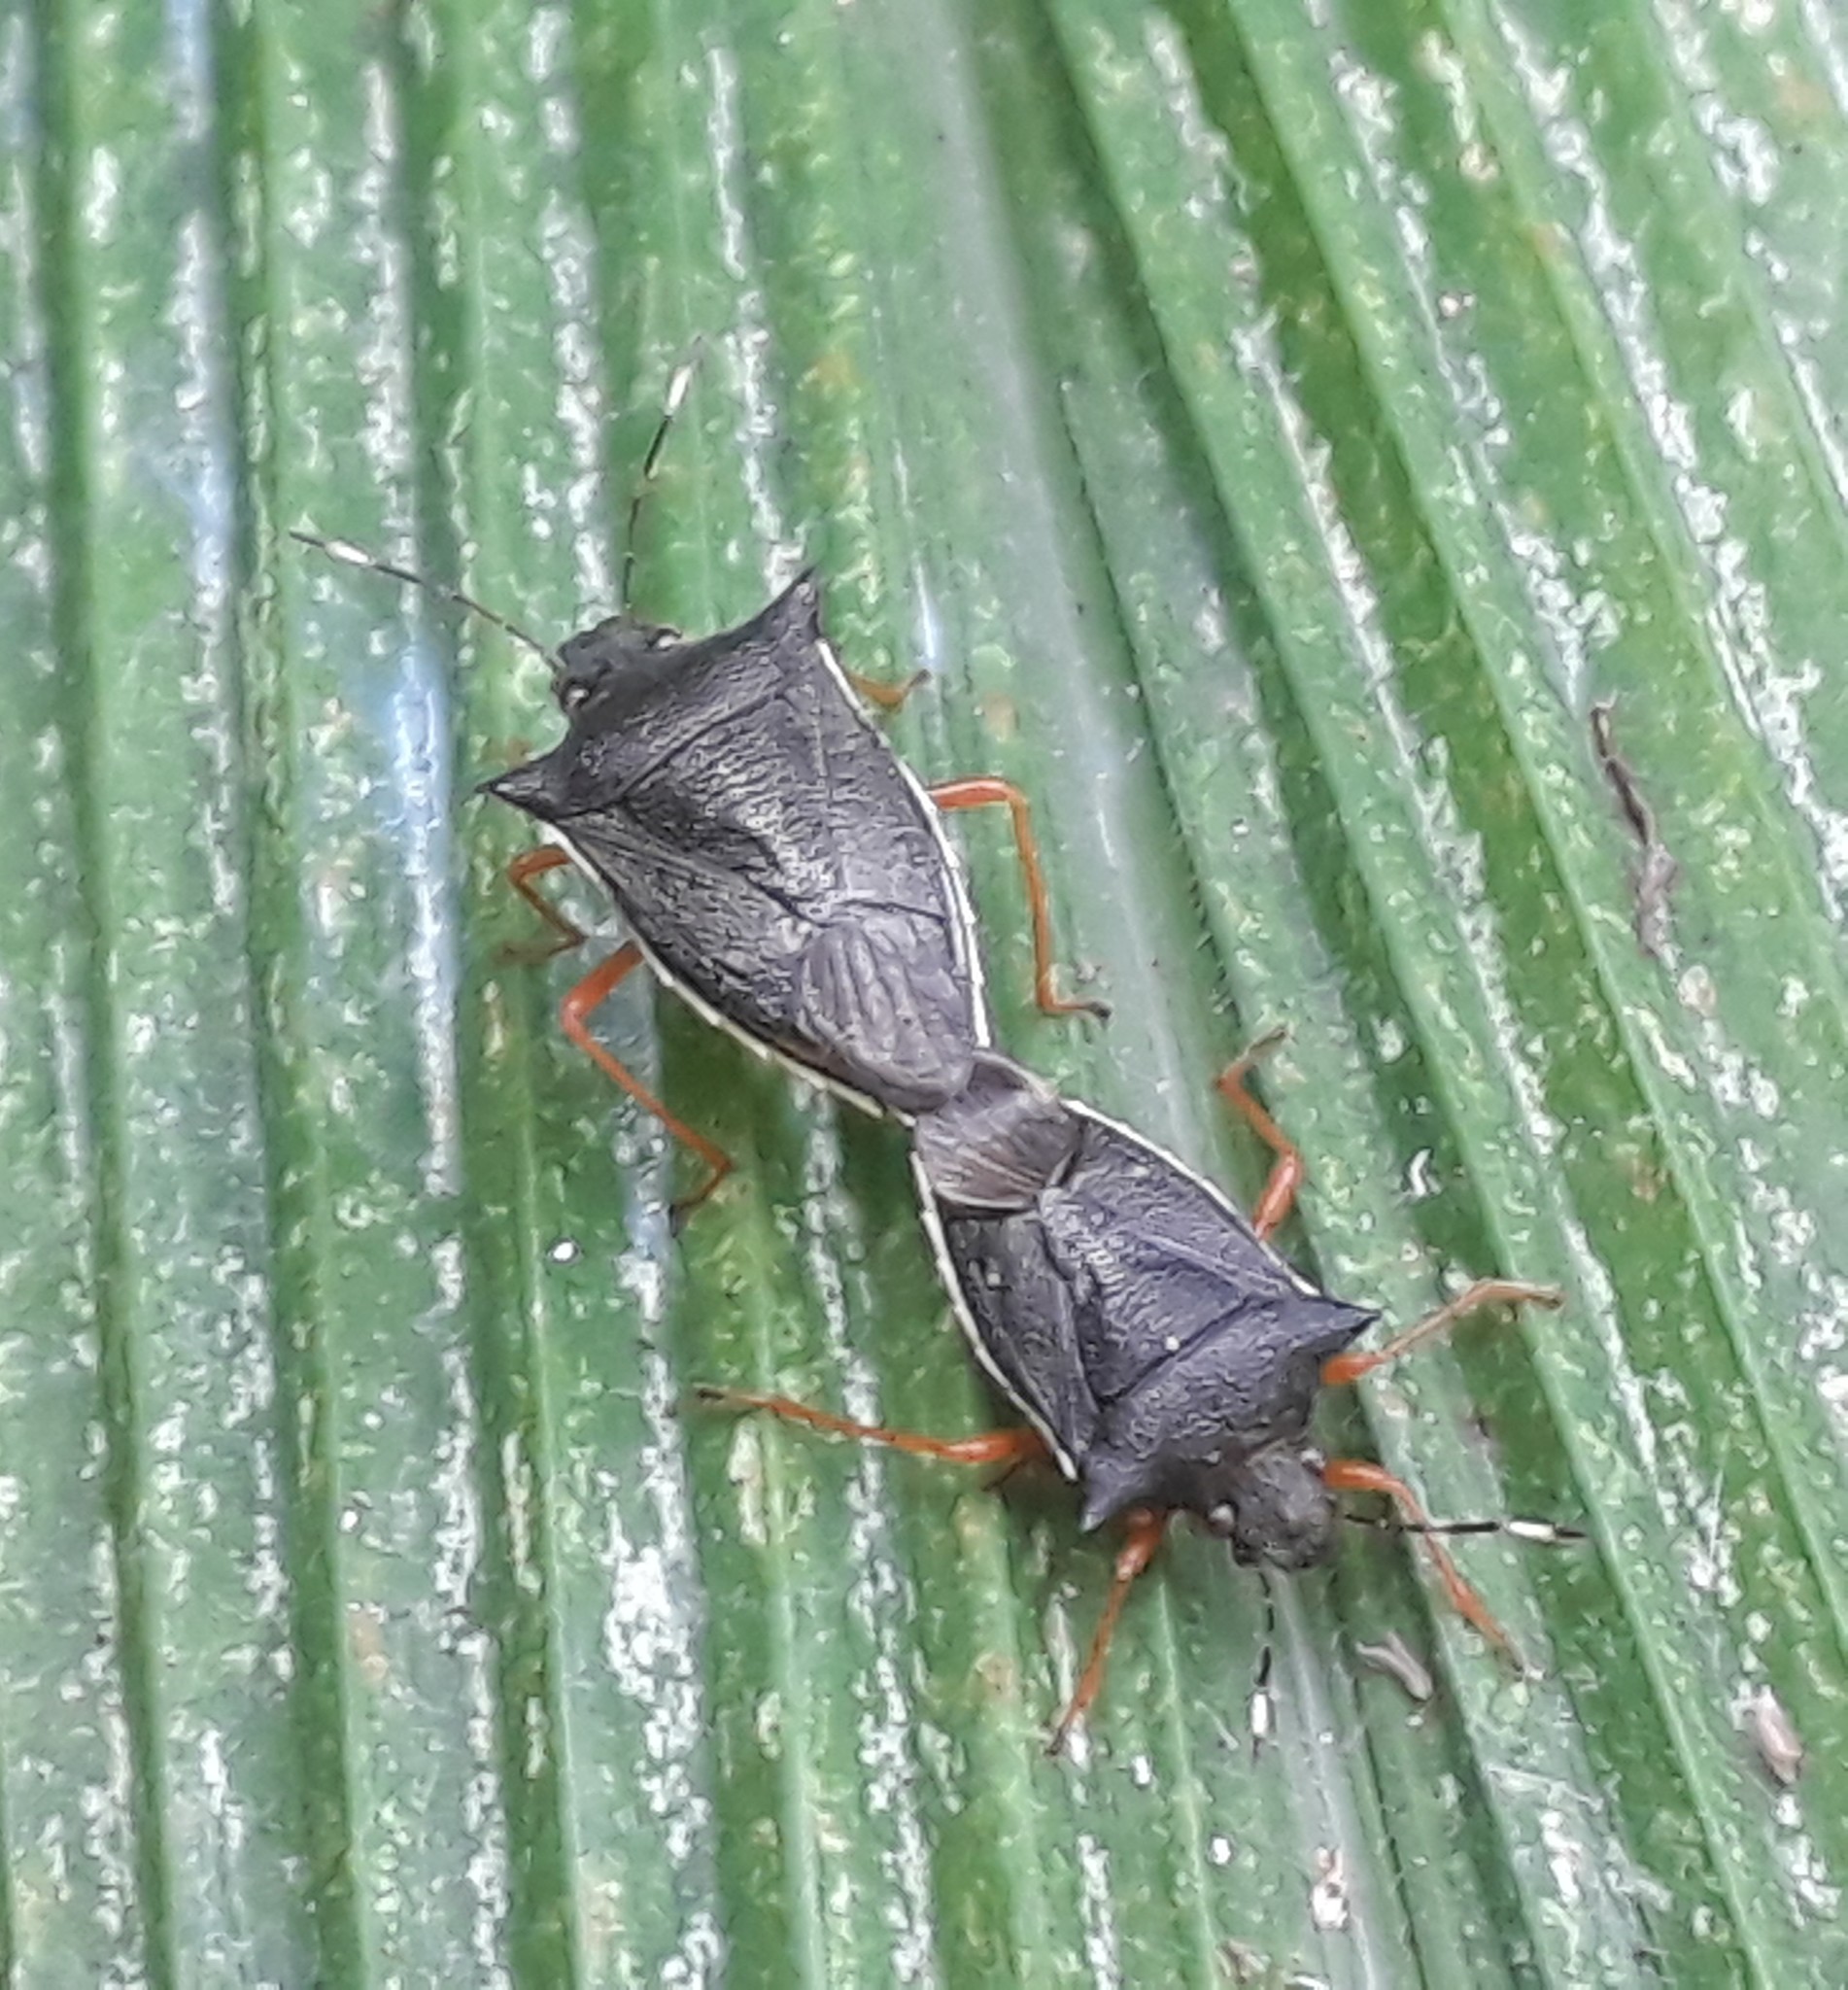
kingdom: Animalia
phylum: Arthropoda
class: Insecta
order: Hemiptera
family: Pentatomidae
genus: Mormidea
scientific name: Mormidea
